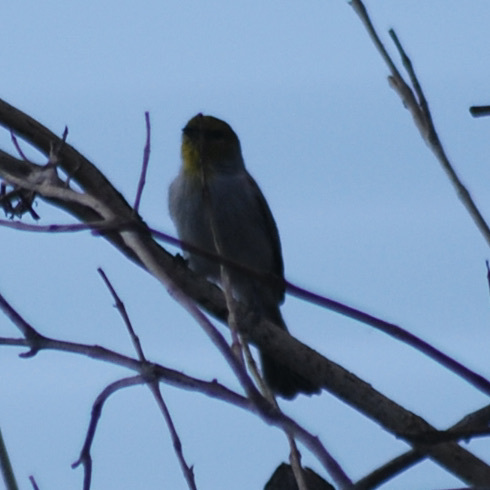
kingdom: Animalia
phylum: Chordata
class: Aves
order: Passeriformes
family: Remizidae
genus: Auriparus
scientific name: Auriparus flaviceps
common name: Verdin
